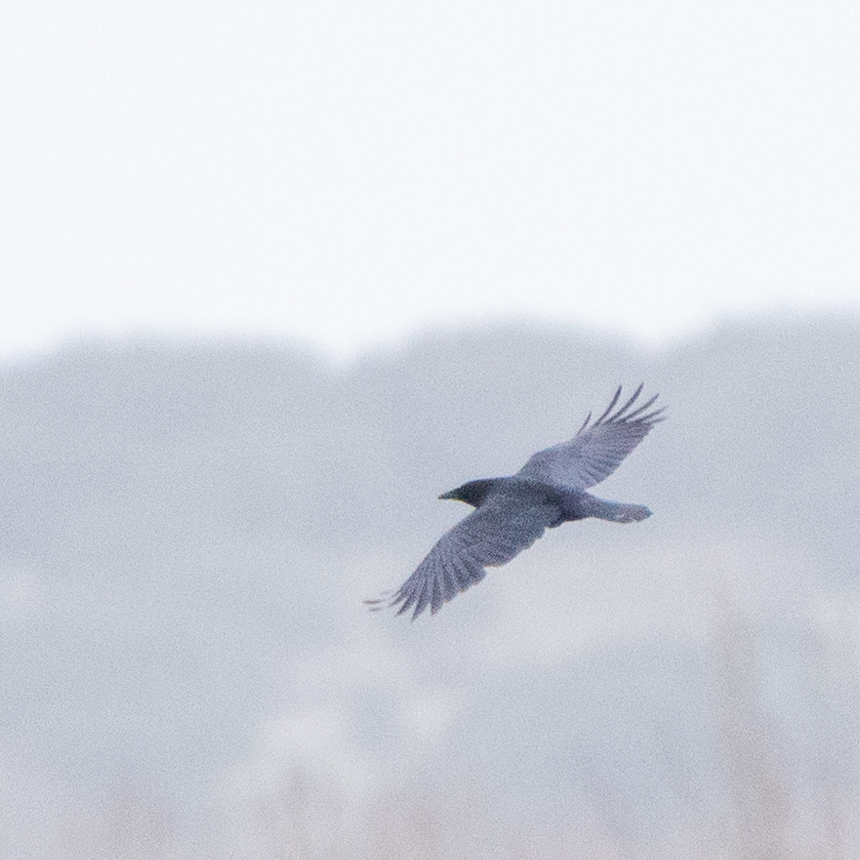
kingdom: Animalia
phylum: Chordata
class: Aves
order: Passeriformes
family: Corvidae
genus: Corvus
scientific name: Corvus corone
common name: Carrion crow
